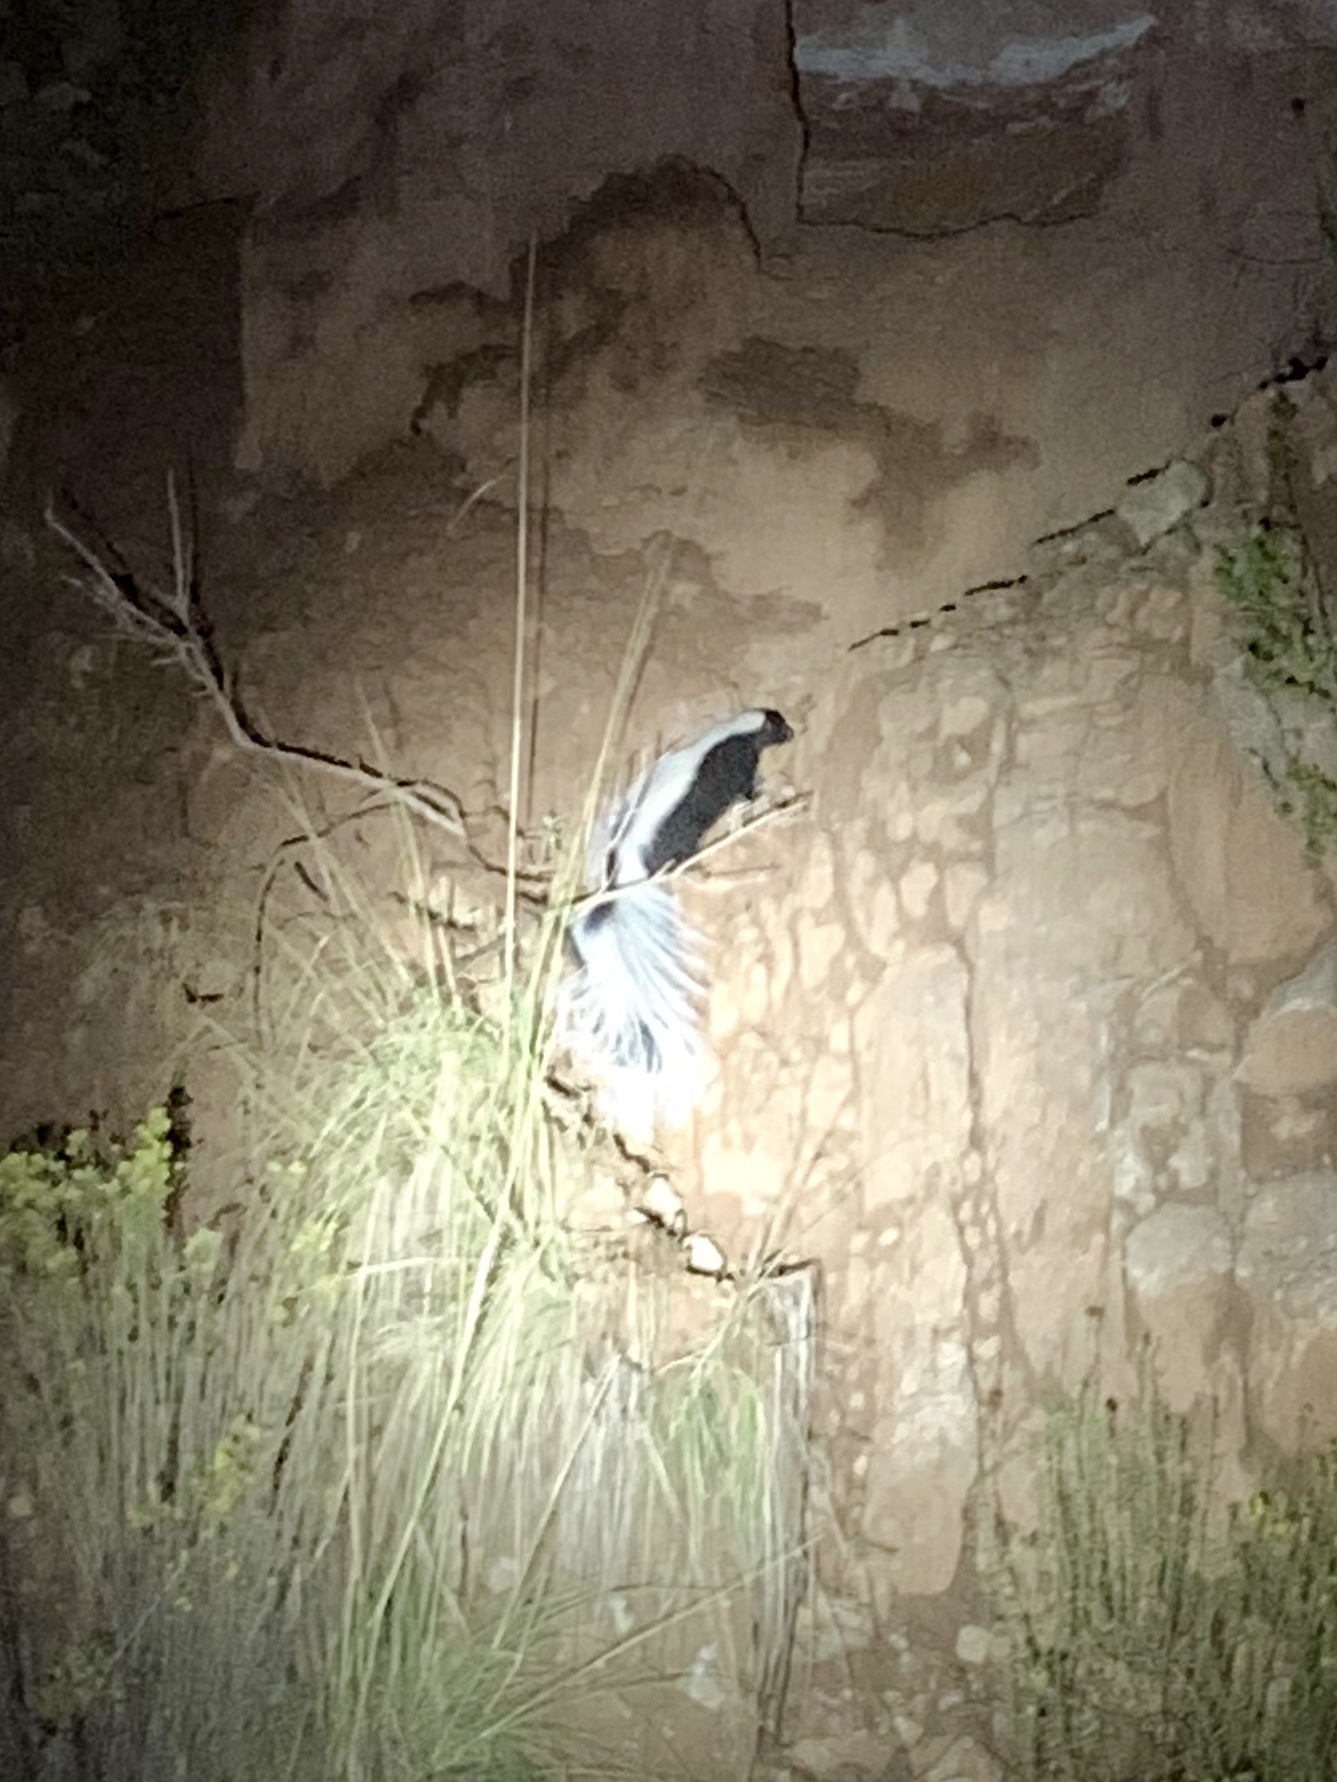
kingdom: Animalia
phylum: Chordata
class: Mammalia
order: Carnivora
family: Mephitidae
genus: Mephitis
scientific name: Mephitis mephitis
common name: Striped skunk
